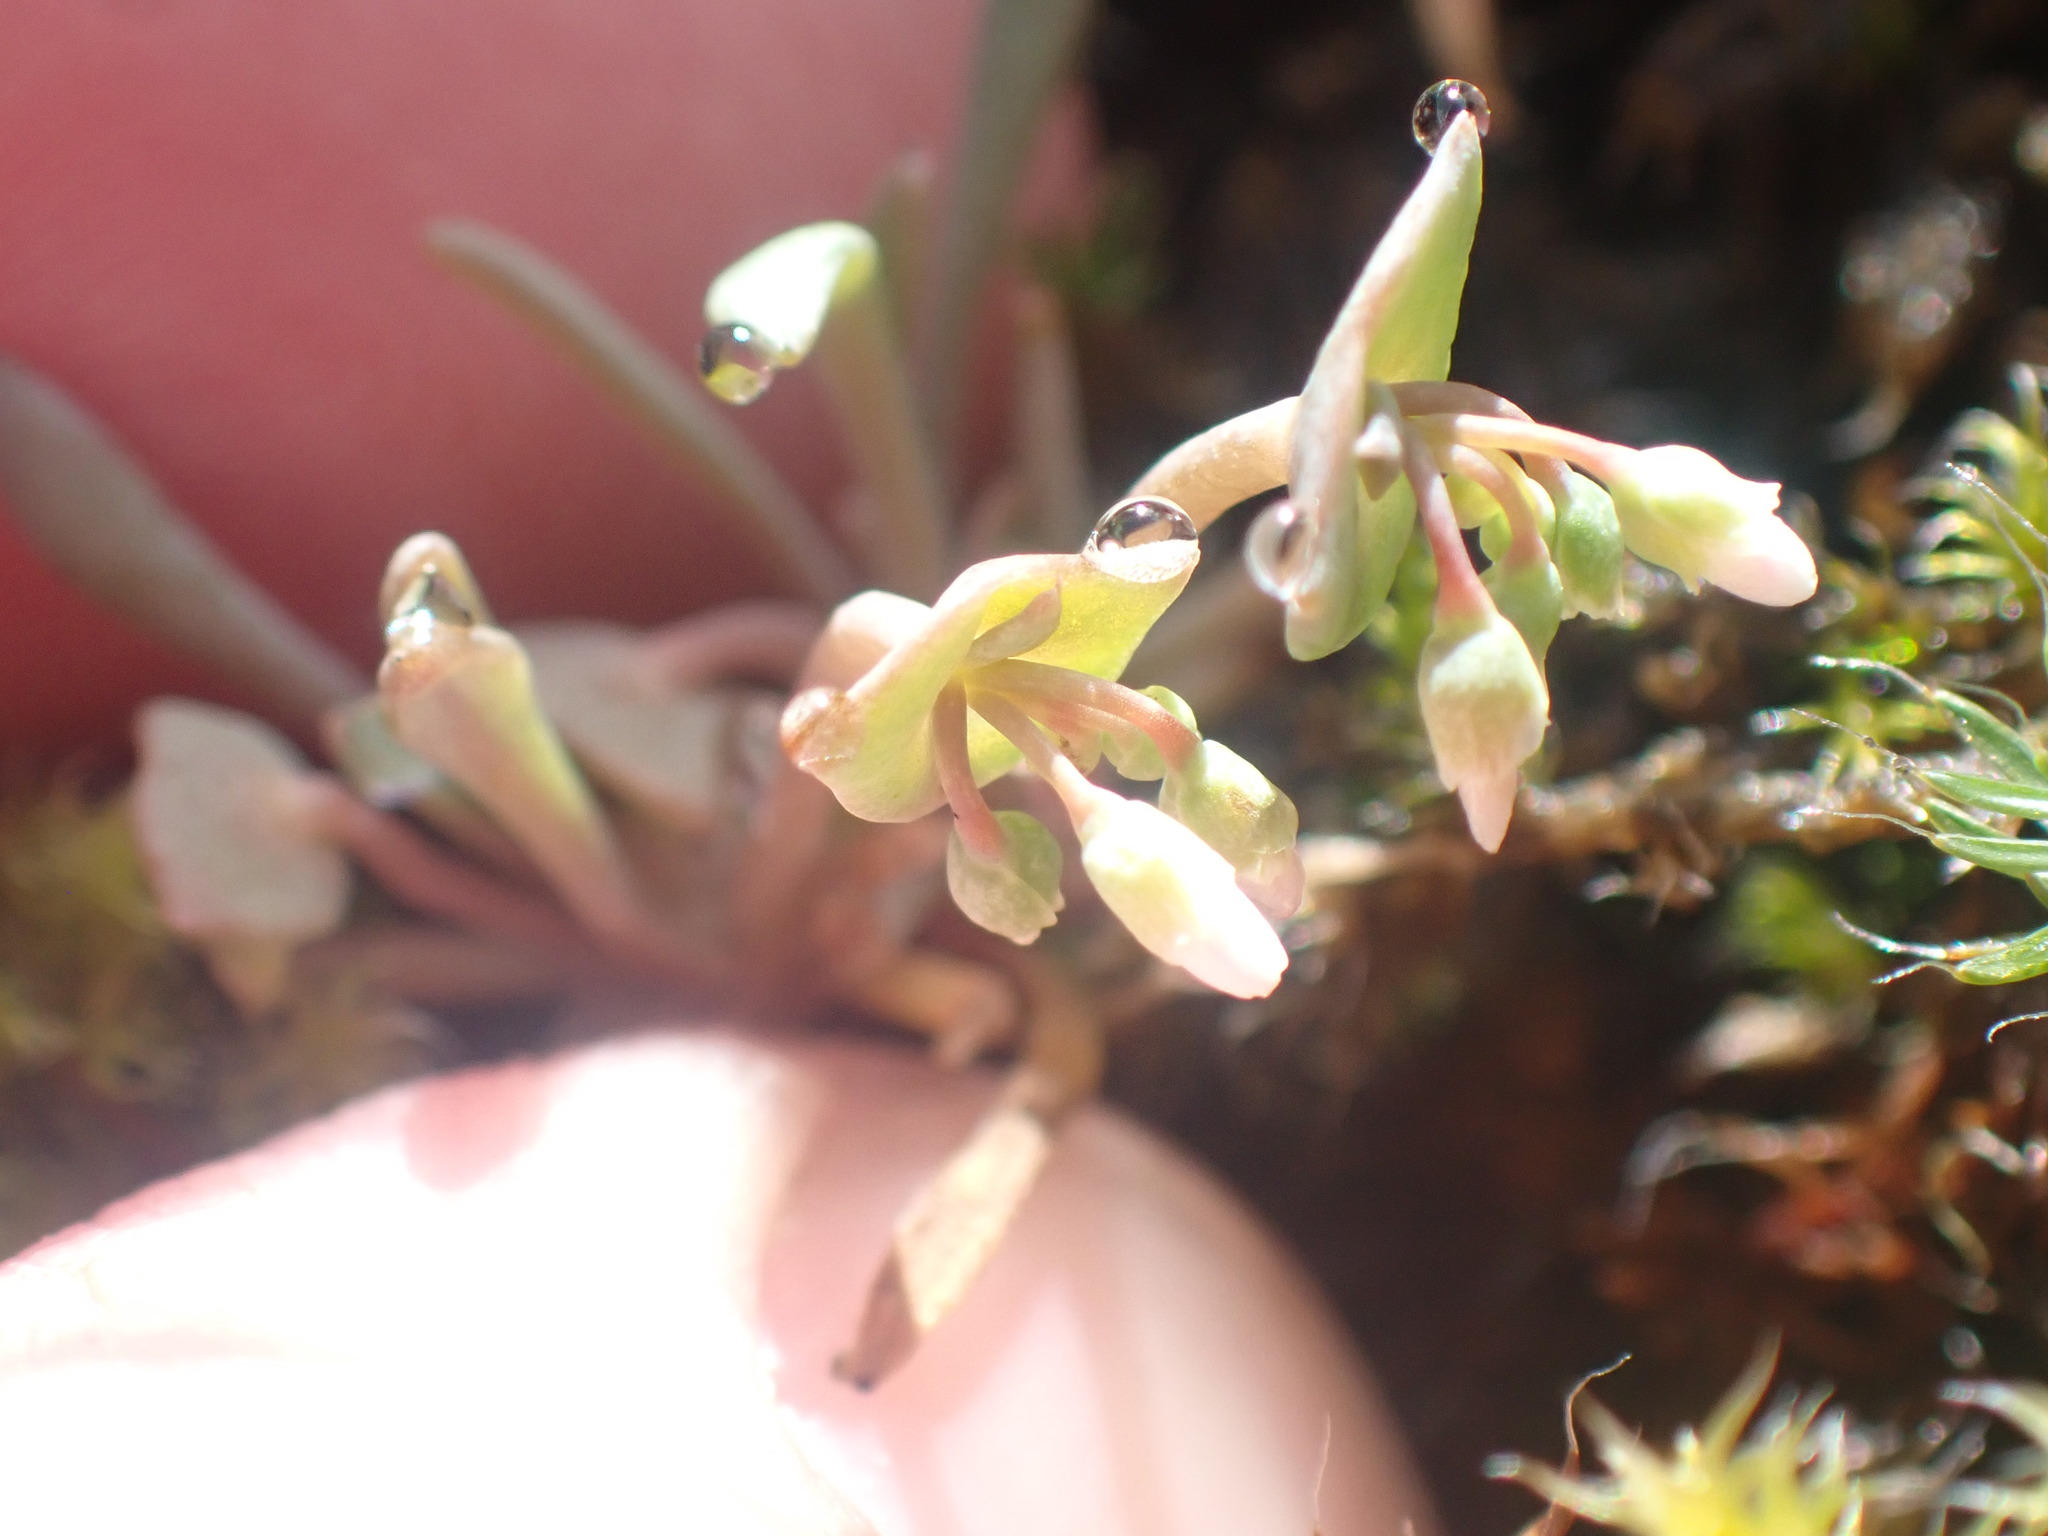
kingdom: Plantae
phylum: Tracheophyta
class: Magnoliopsida
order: Caryophyllales
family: Montiaceae
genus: Claytonia
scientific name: Claytonia exigua
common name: Pale spring beauty
